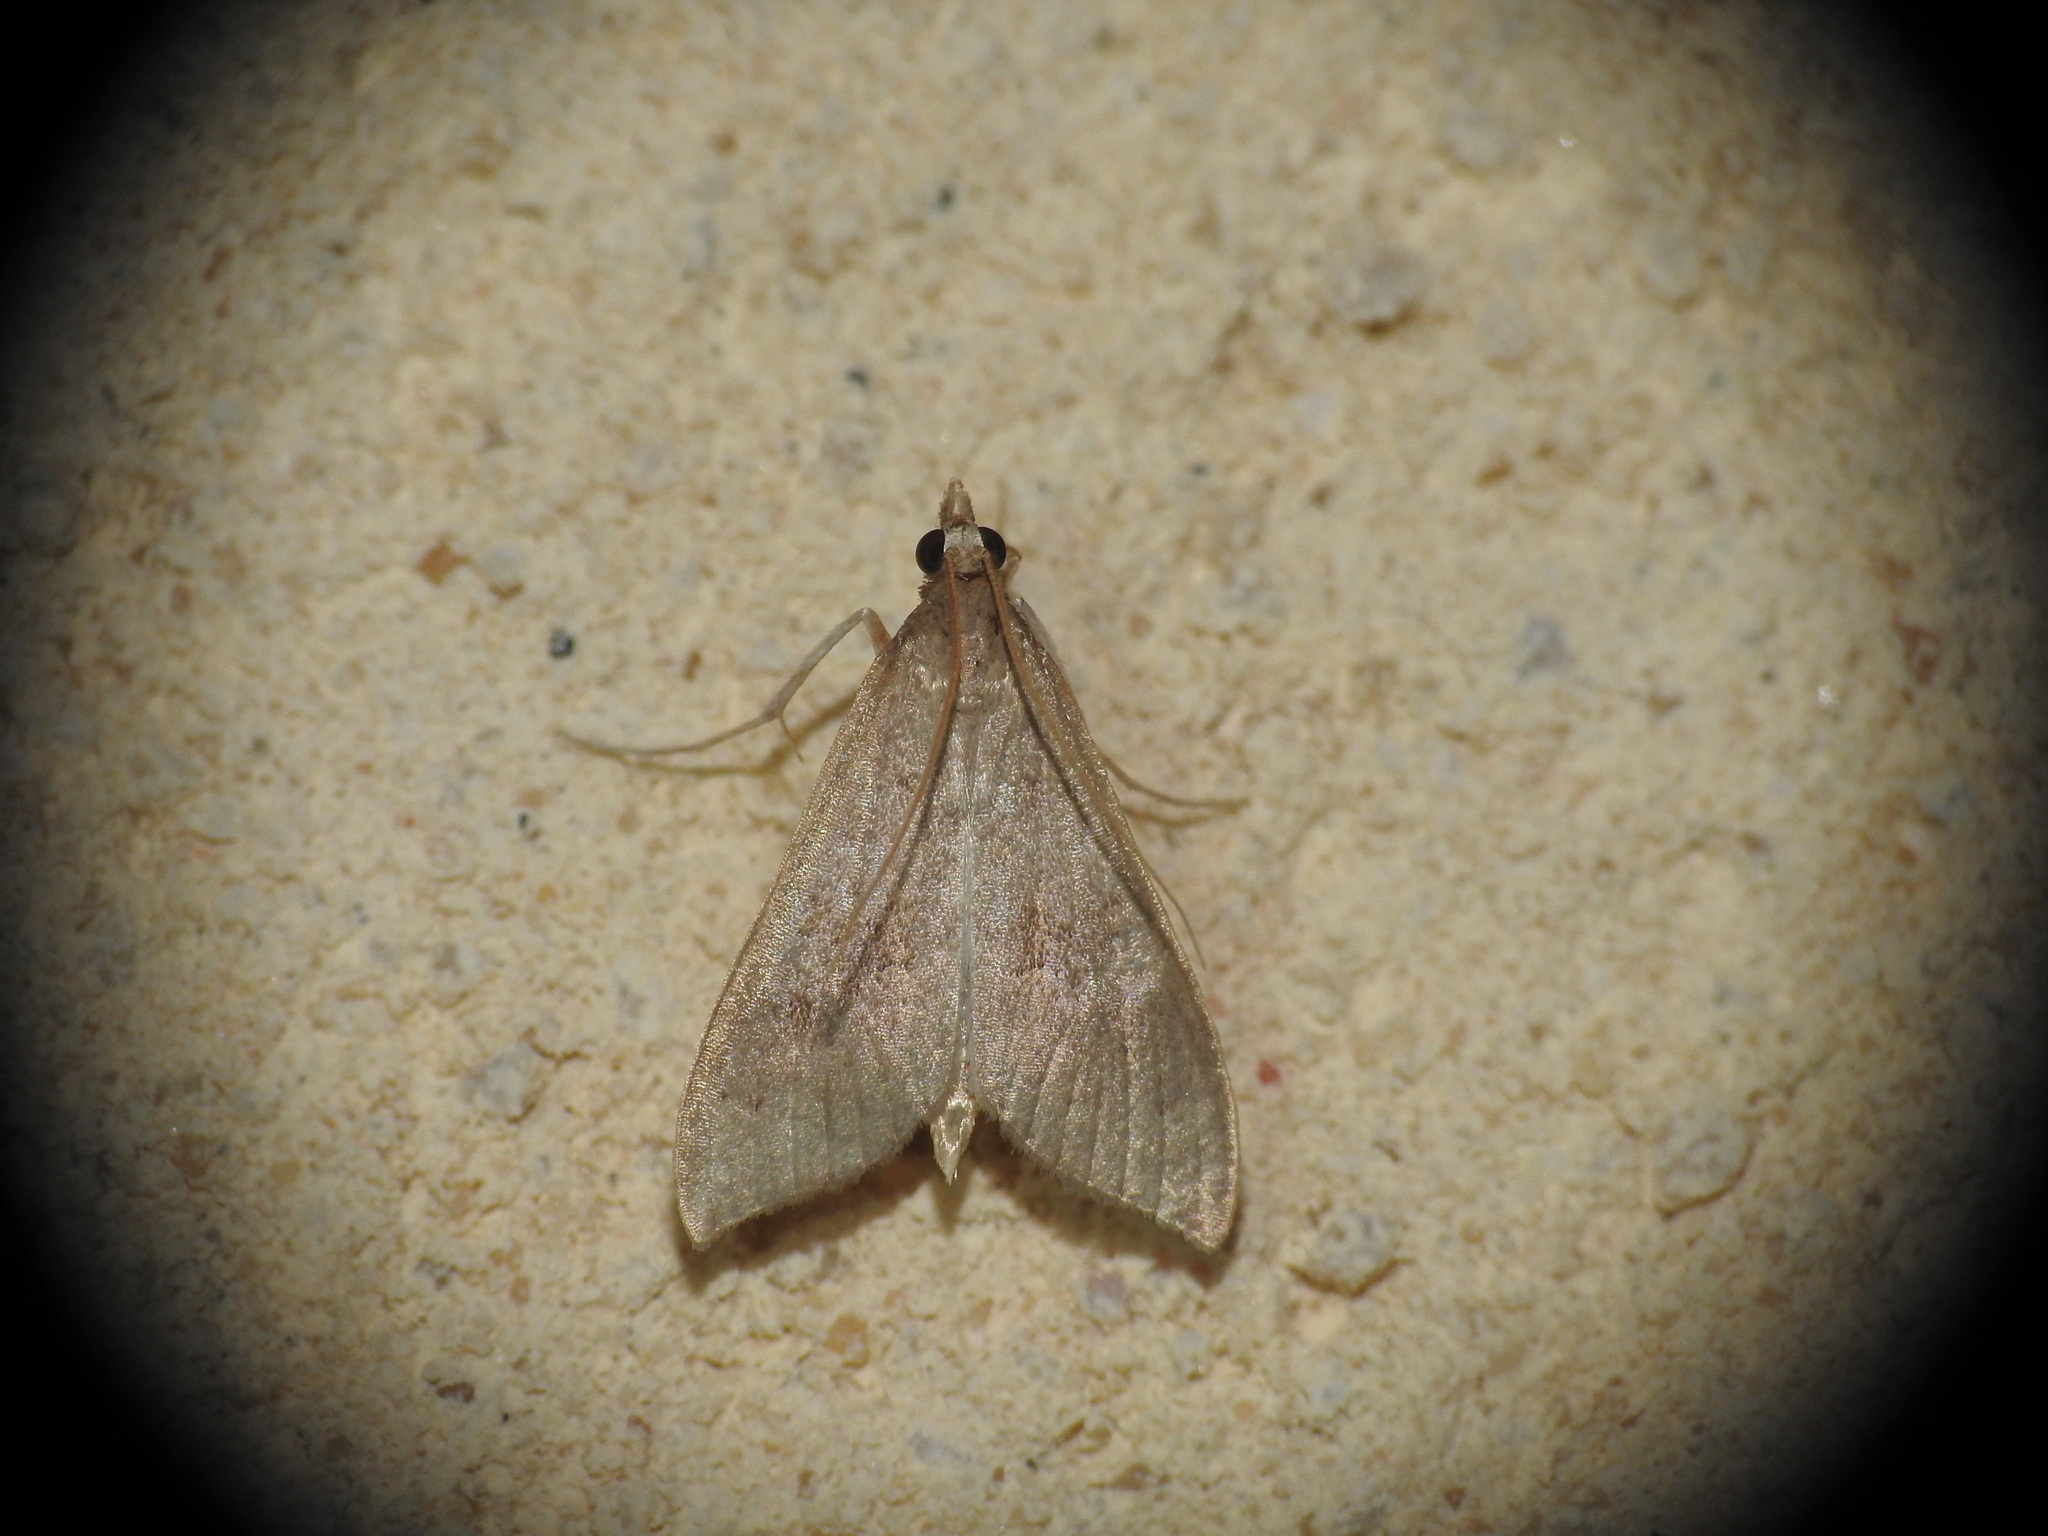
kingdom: Animalia
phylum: Arthropoda
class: Insecta
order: Lepidoptera
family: Crambidae
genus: Mecyna
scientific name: Mecyna asinalis
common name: Coastal pearl
